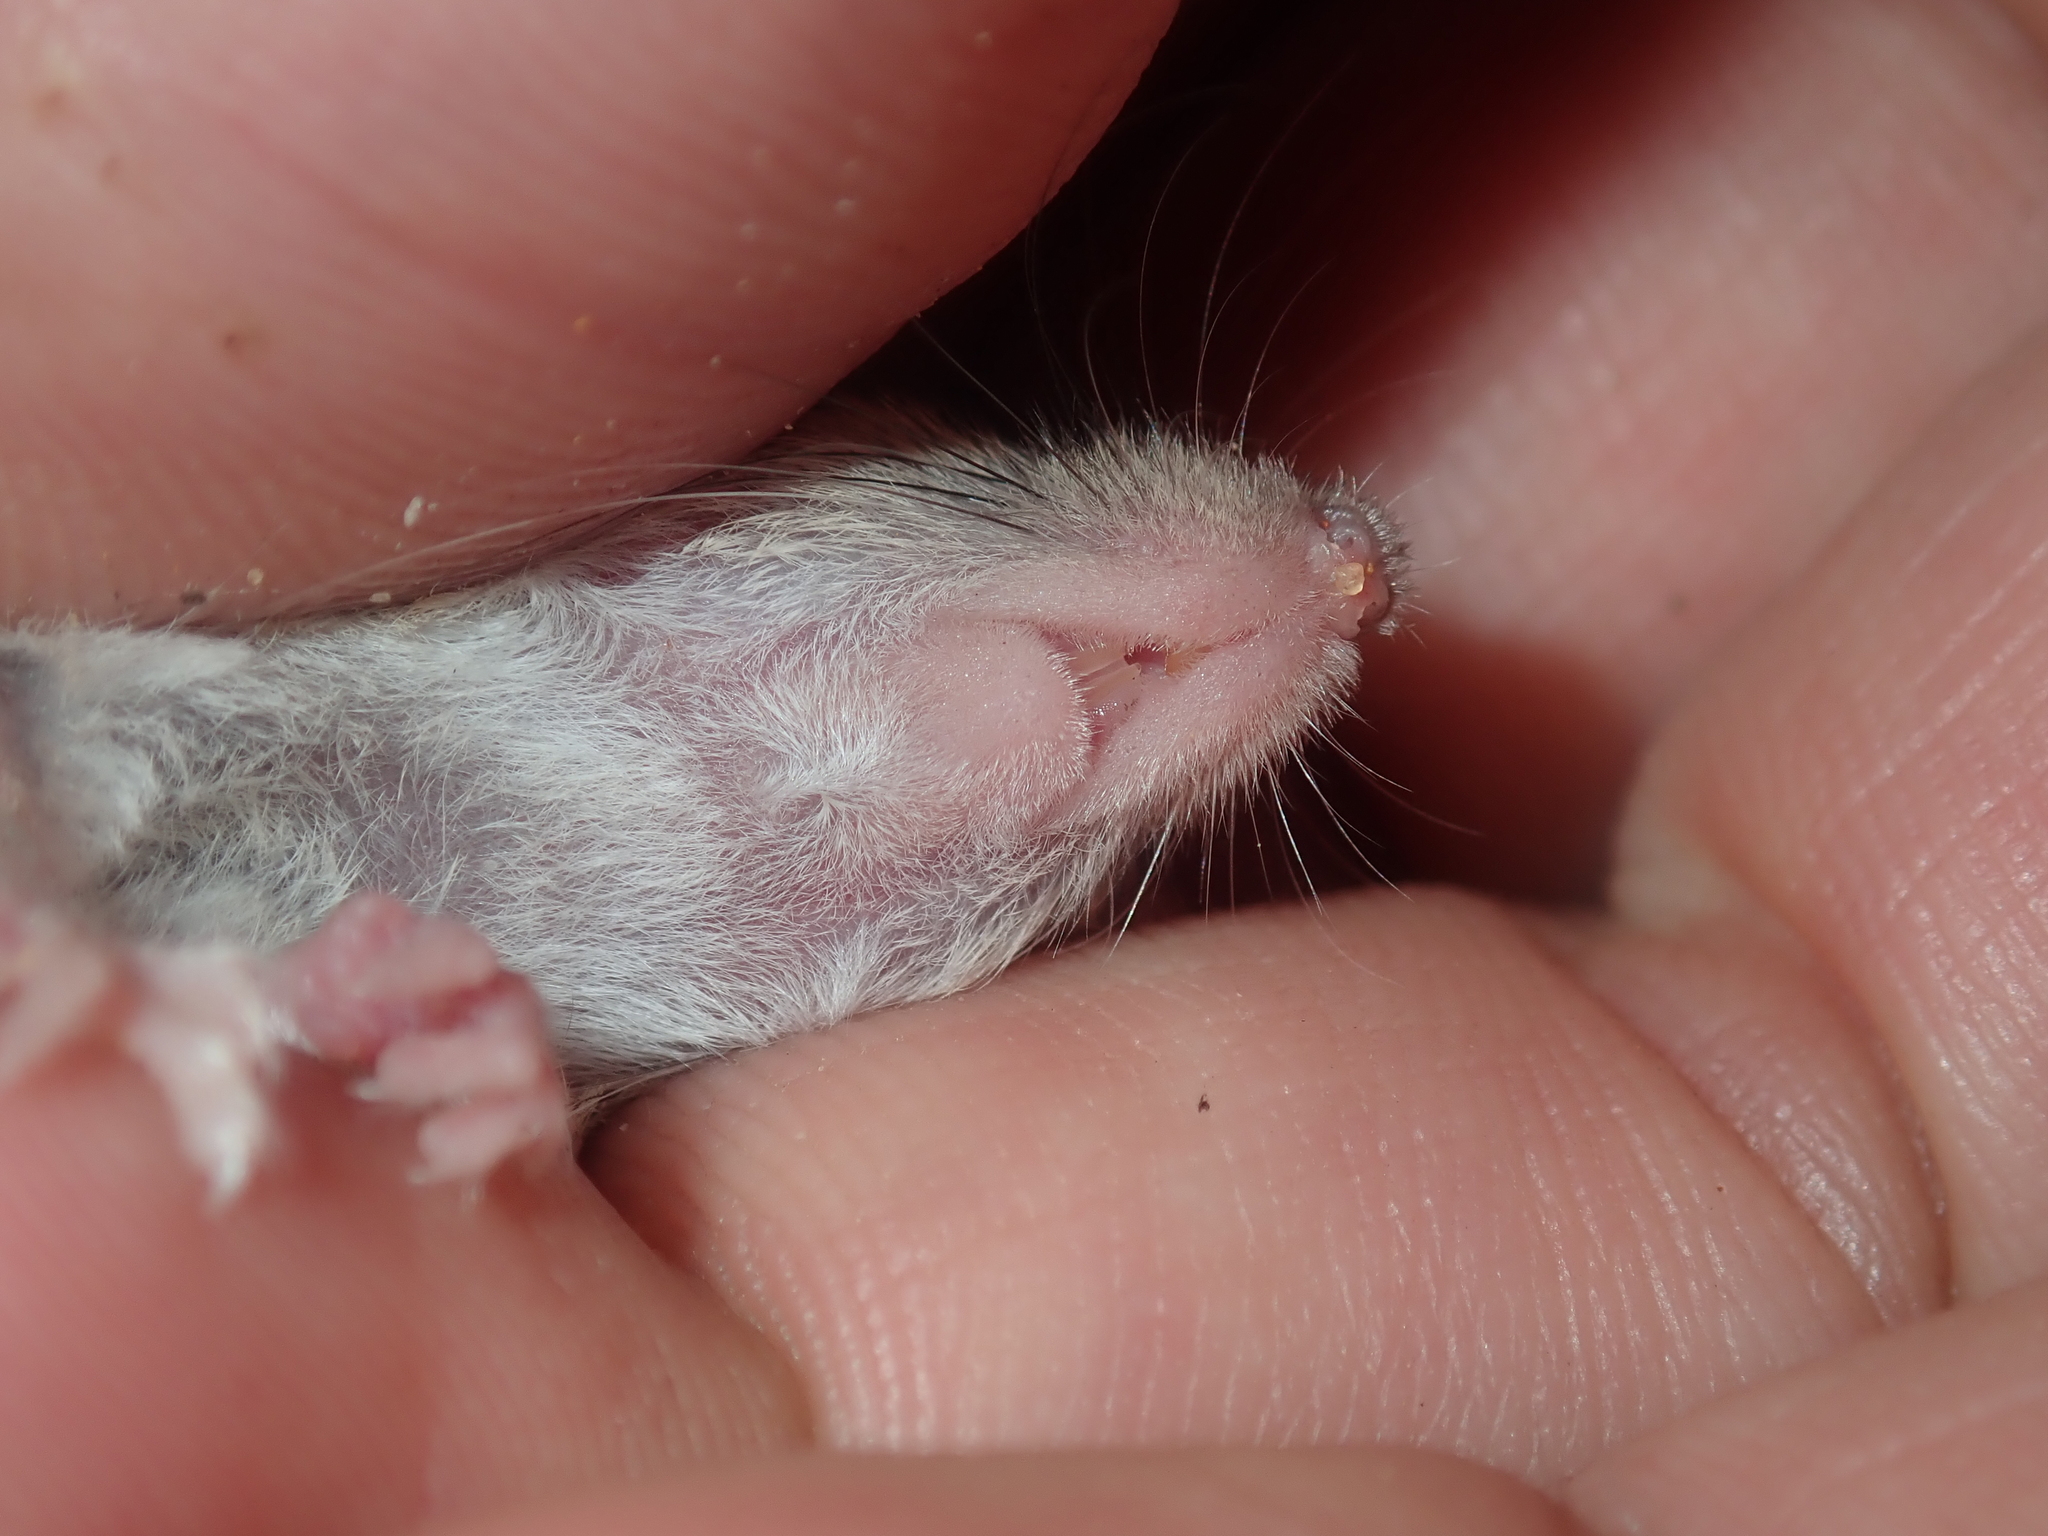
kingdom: Animalia
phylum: Chordata
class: Mammalia
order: Rodentia
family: Muridae
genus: Mus
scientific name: Mus musculus
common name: House mouse
